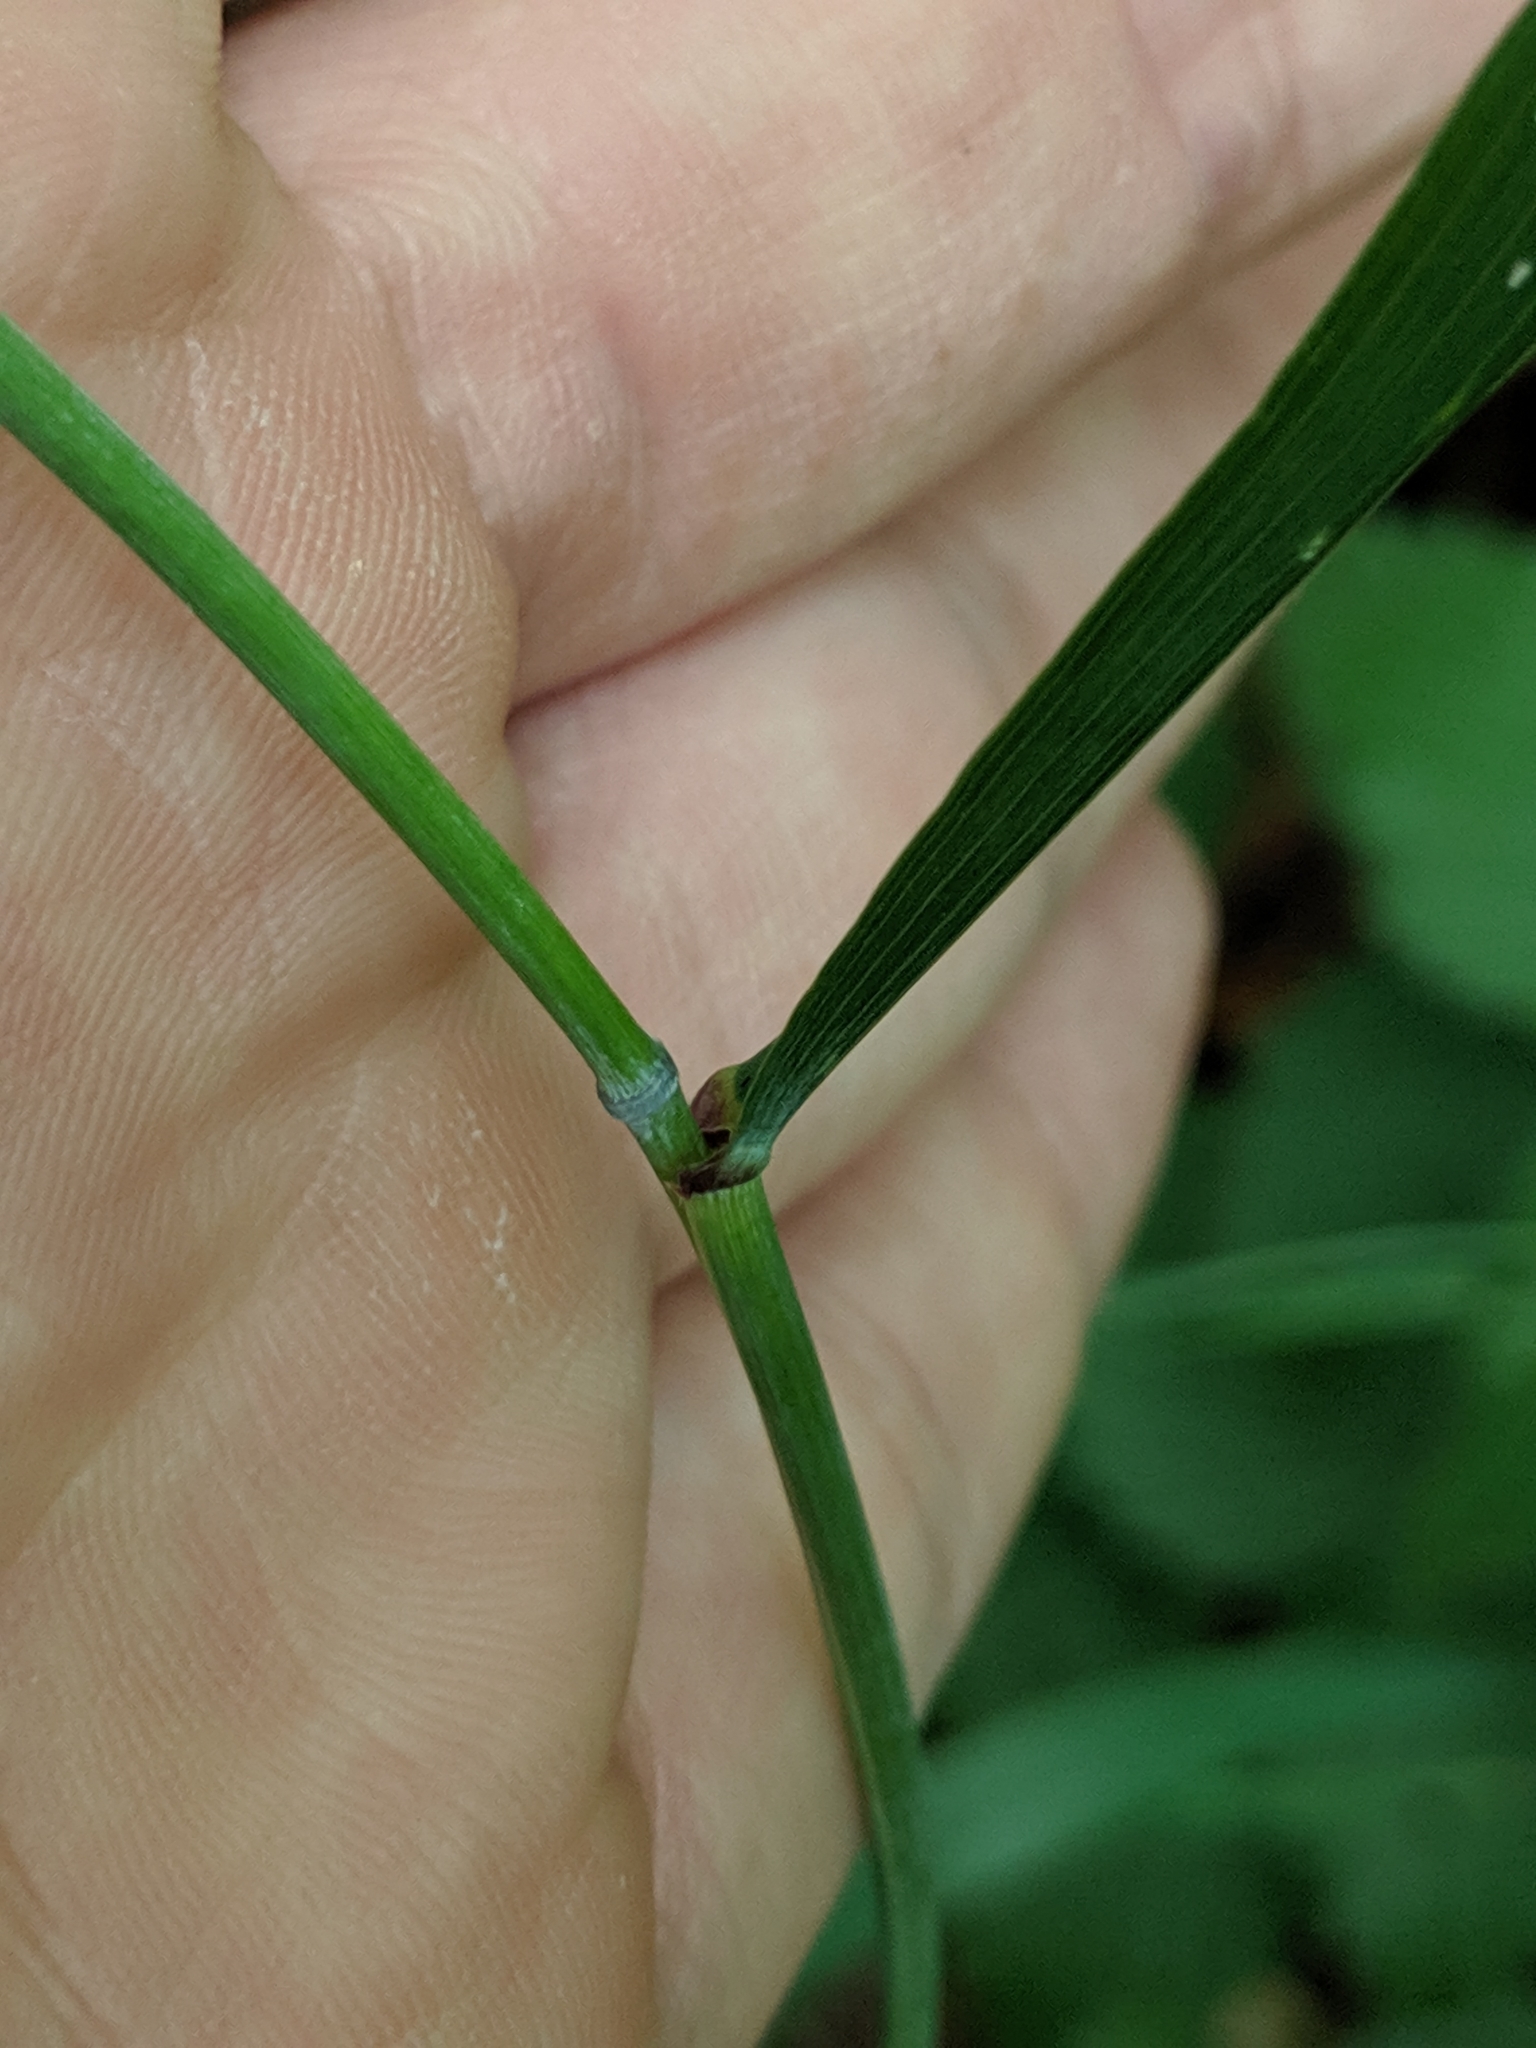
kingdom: Plantae
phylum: Tracheophyta
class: Liliopsida
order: Poales
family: Poaceae
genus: Elymus
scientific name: Elymus hystrix
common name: Bottlebrush grass
